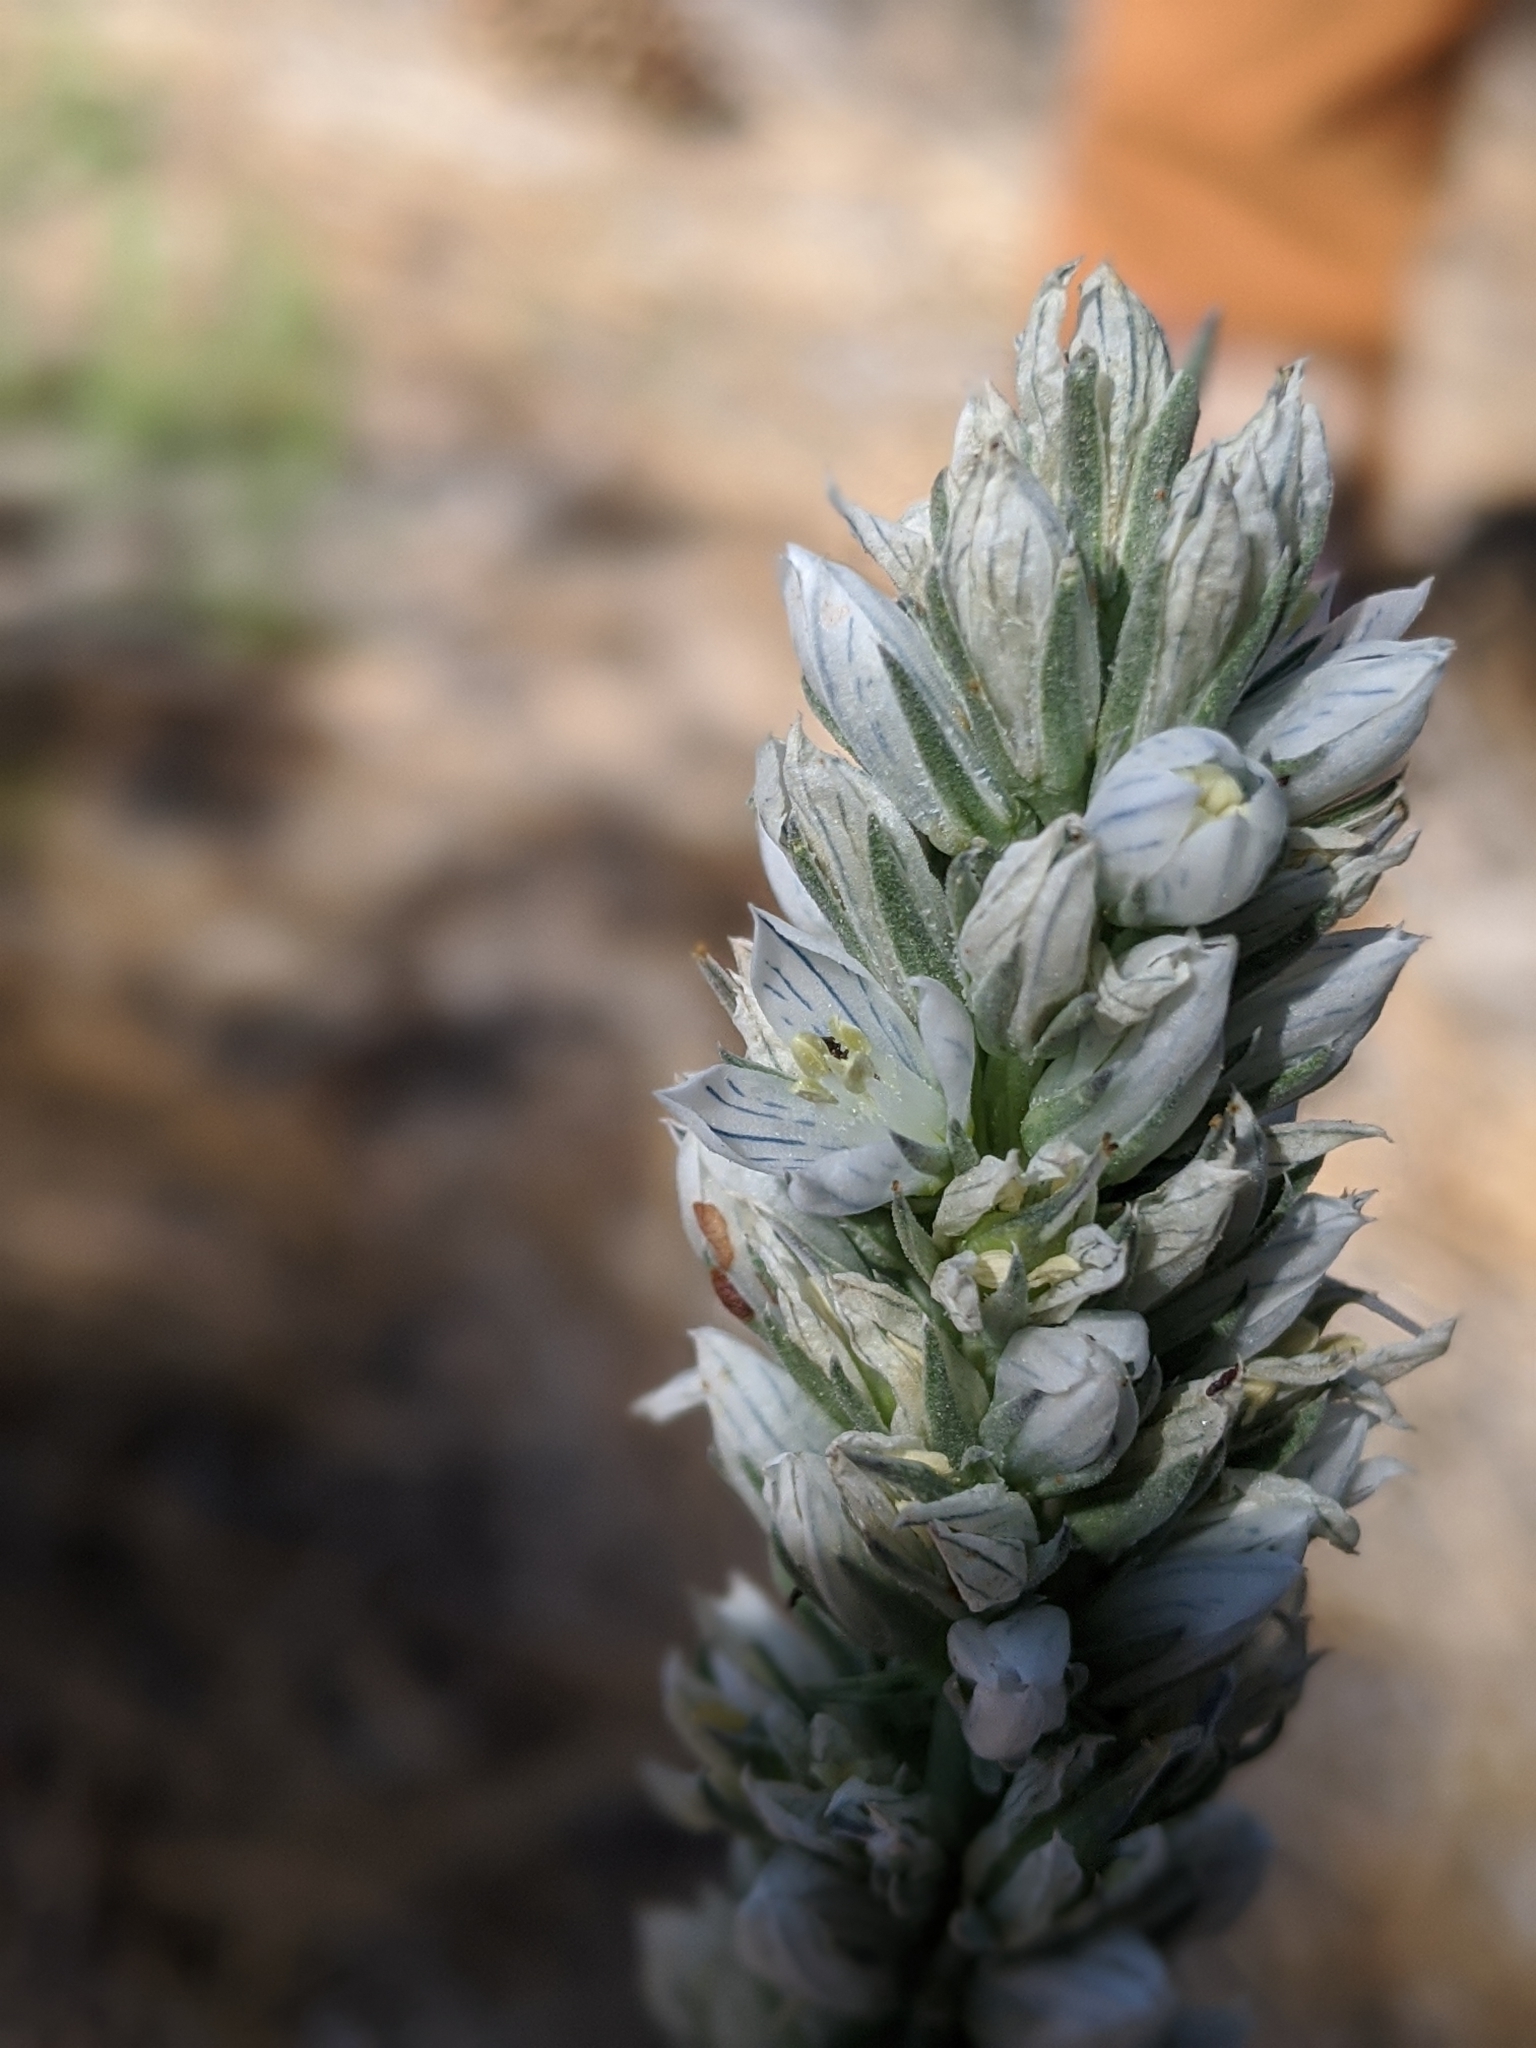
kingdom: Plantae
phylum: Tracheophyta
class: Magnoliopsida
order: Gentianales
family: Gentianaceae
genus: Frasera
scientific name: Frasera tubulosa
